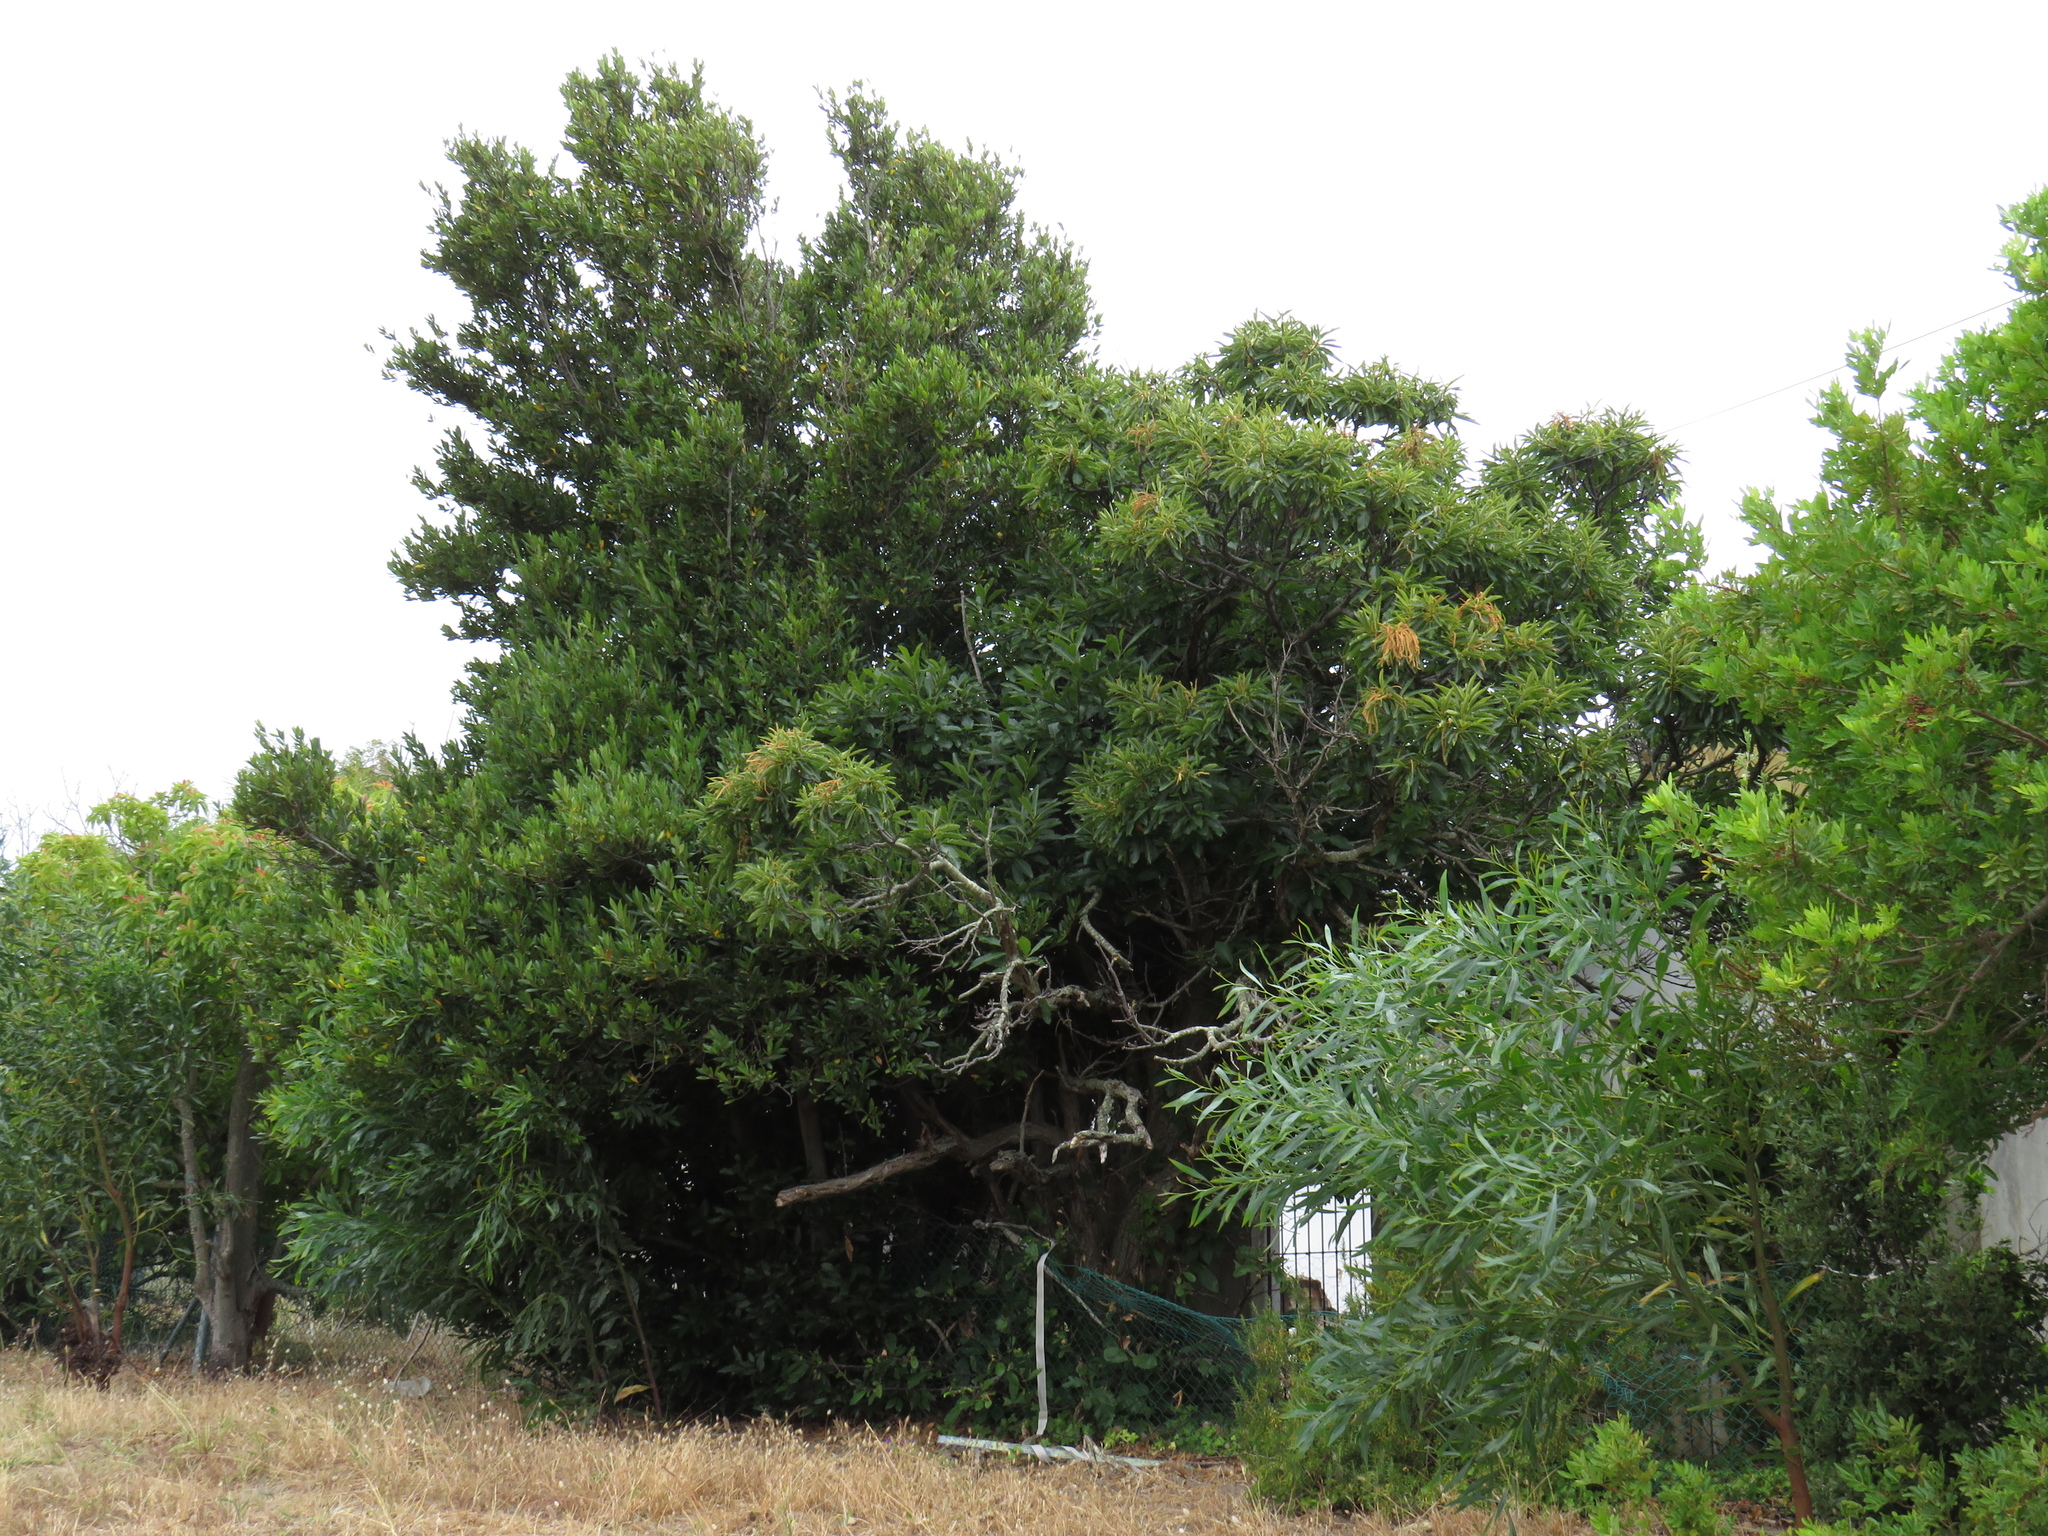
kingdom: Plantae
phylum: Tracheophyta
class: Magnoliopsida
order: Fagales
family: Fagaceae
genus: Castanea
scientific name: Castanea sativa
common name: Sweet chestnut
